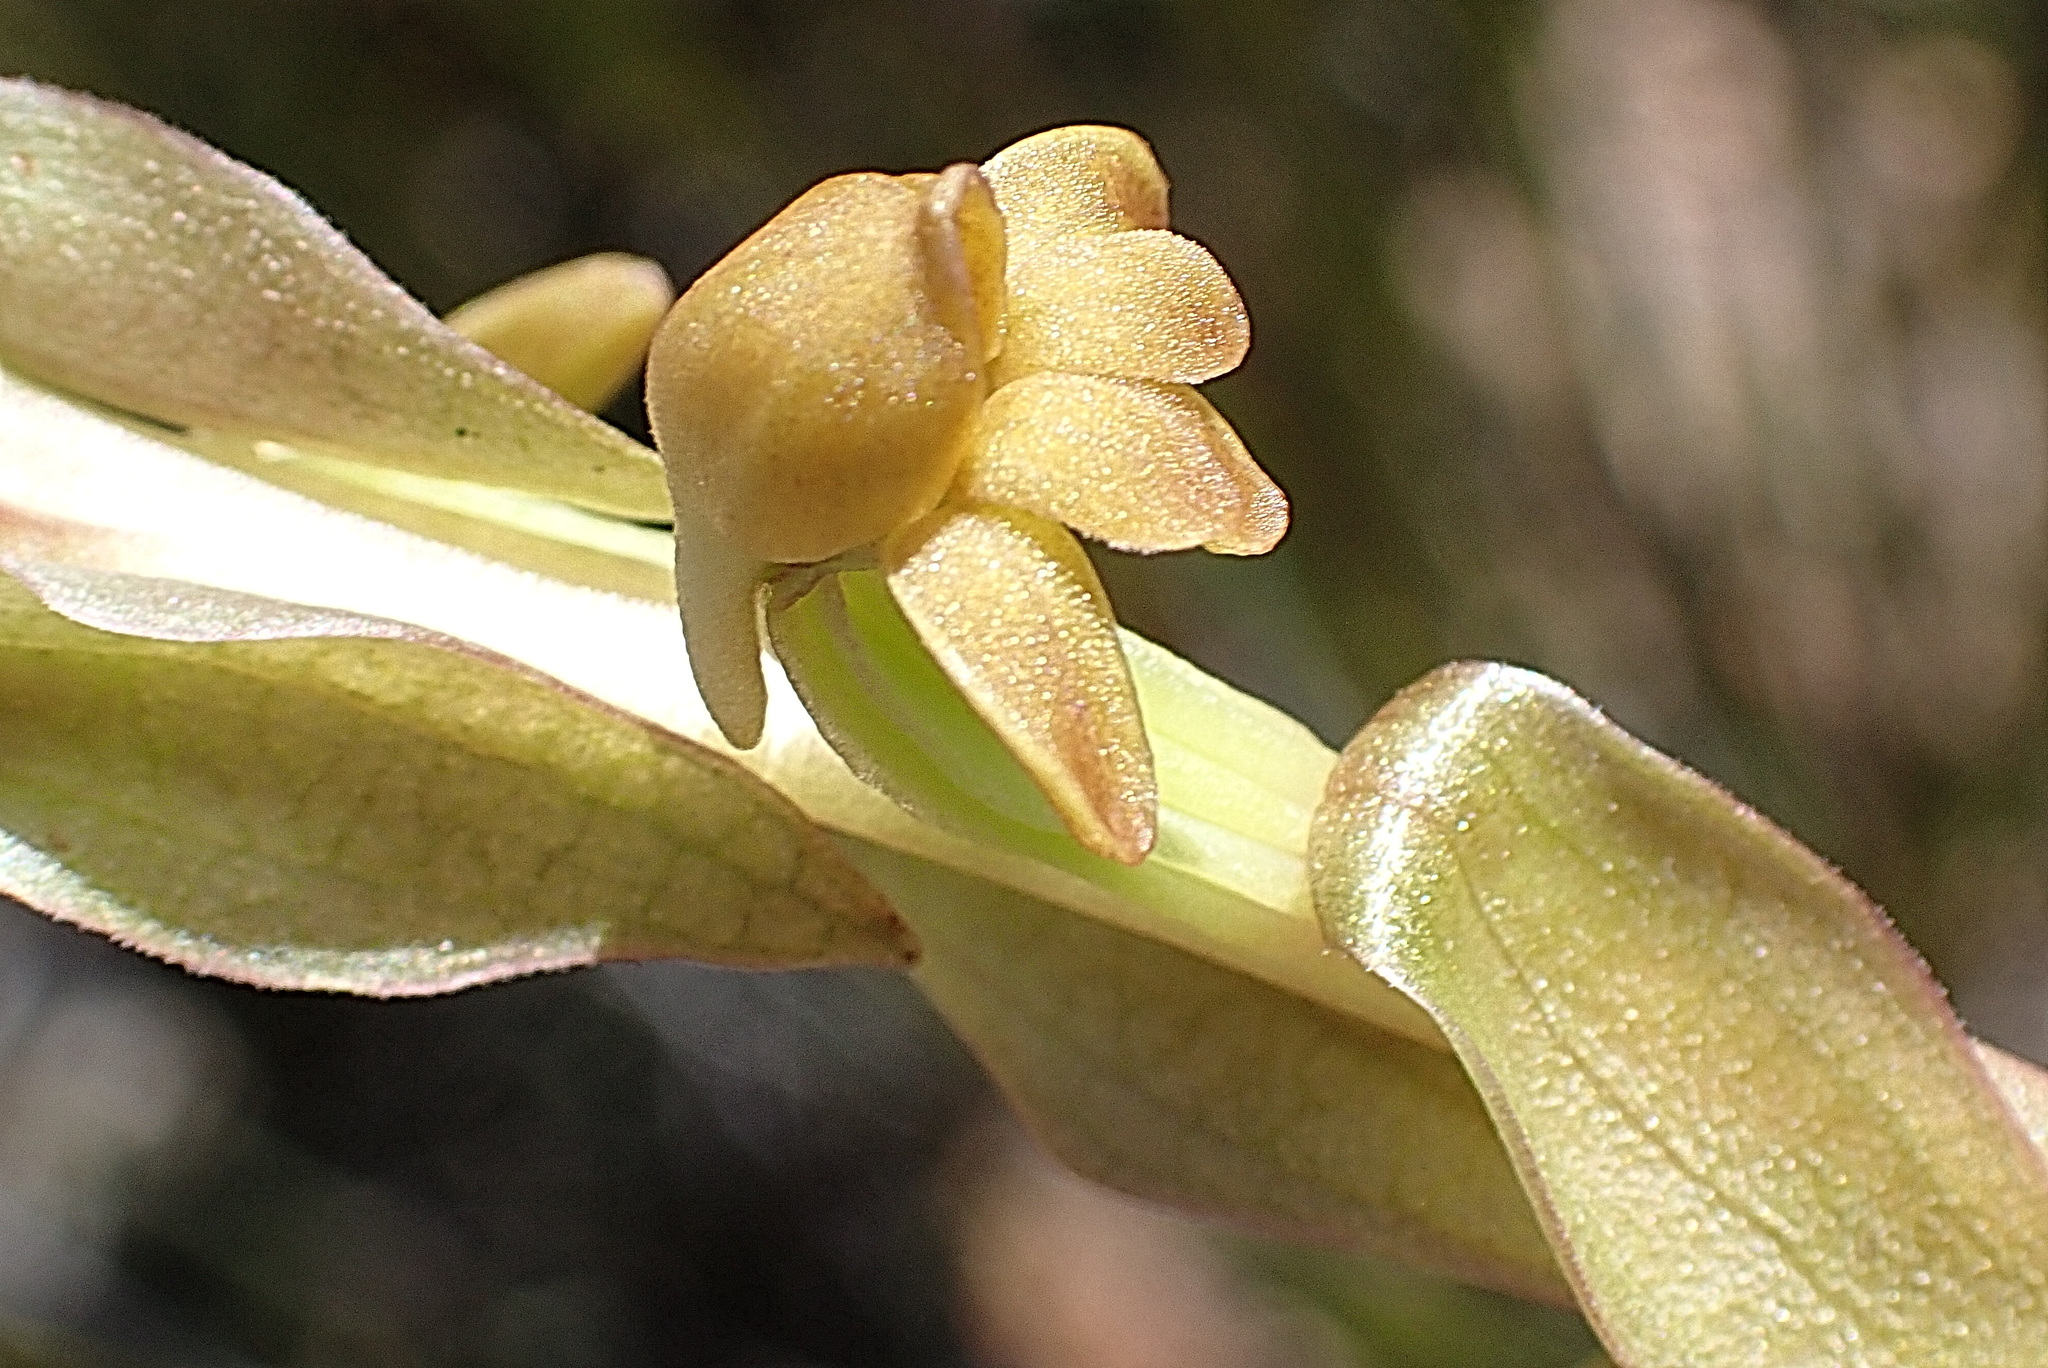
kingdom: Plantae
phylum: Tracheophyta
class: Liliopsida
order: Asparagales
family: Orchidaceae
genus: Satyrium
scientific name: Satyrium bicorne
